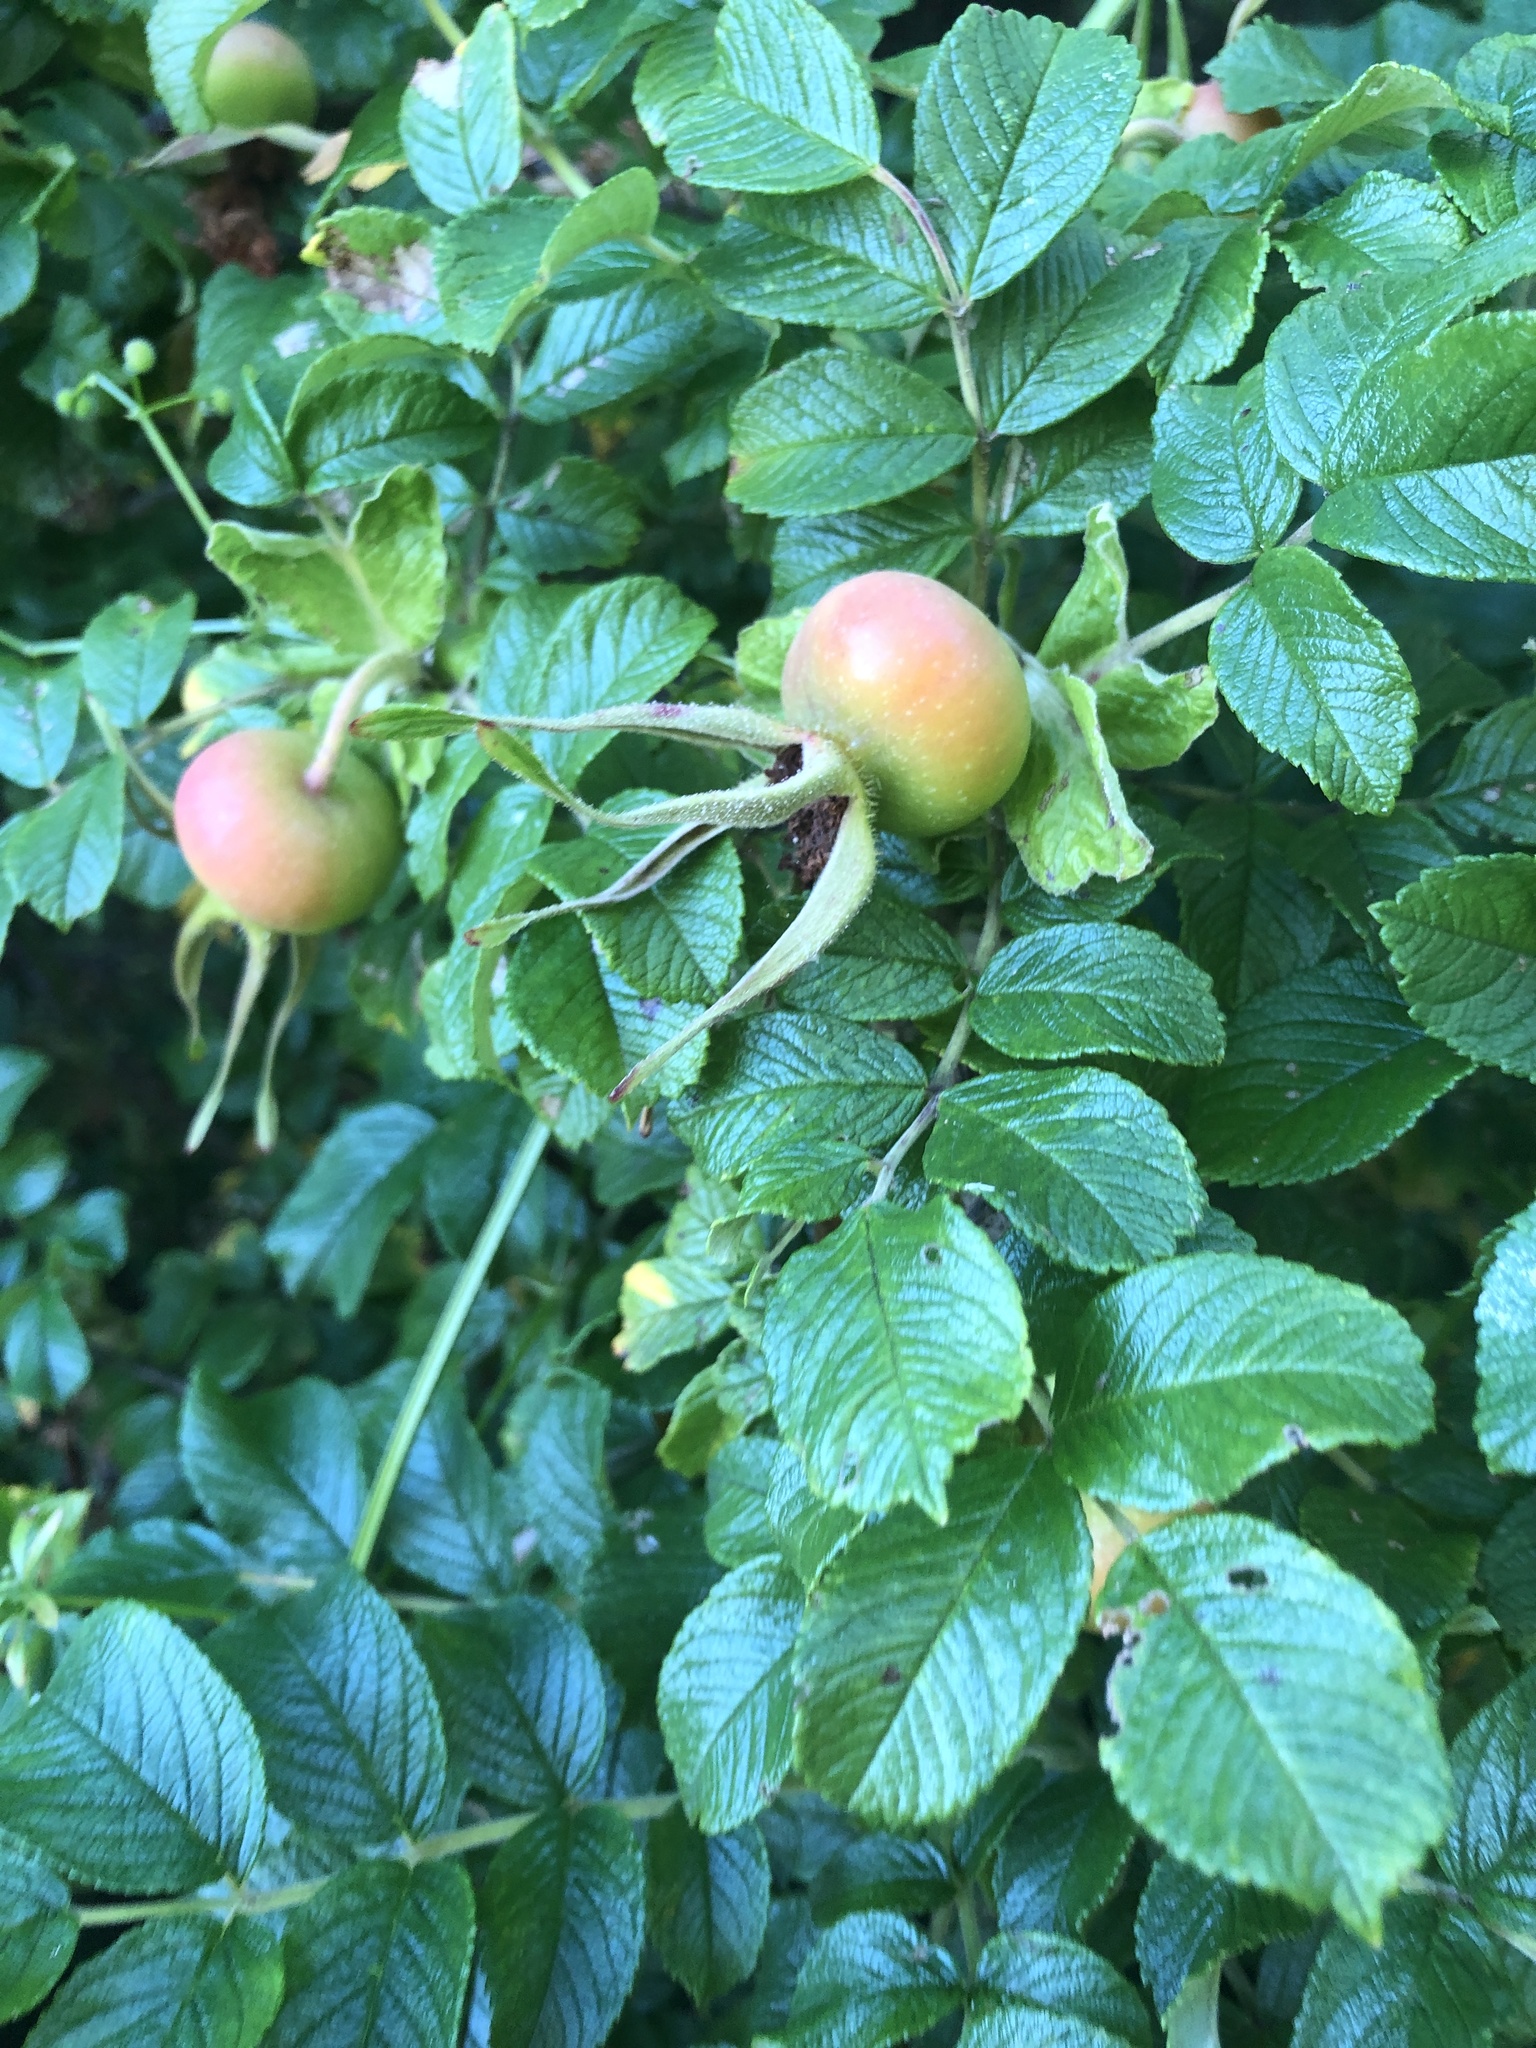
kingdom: Plantae
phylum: Tracheophyta
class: Magnoliopsida
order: Rosales
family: Rosaceae
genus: Rosa
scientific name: Rosa rugosa
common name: Japanese rose
